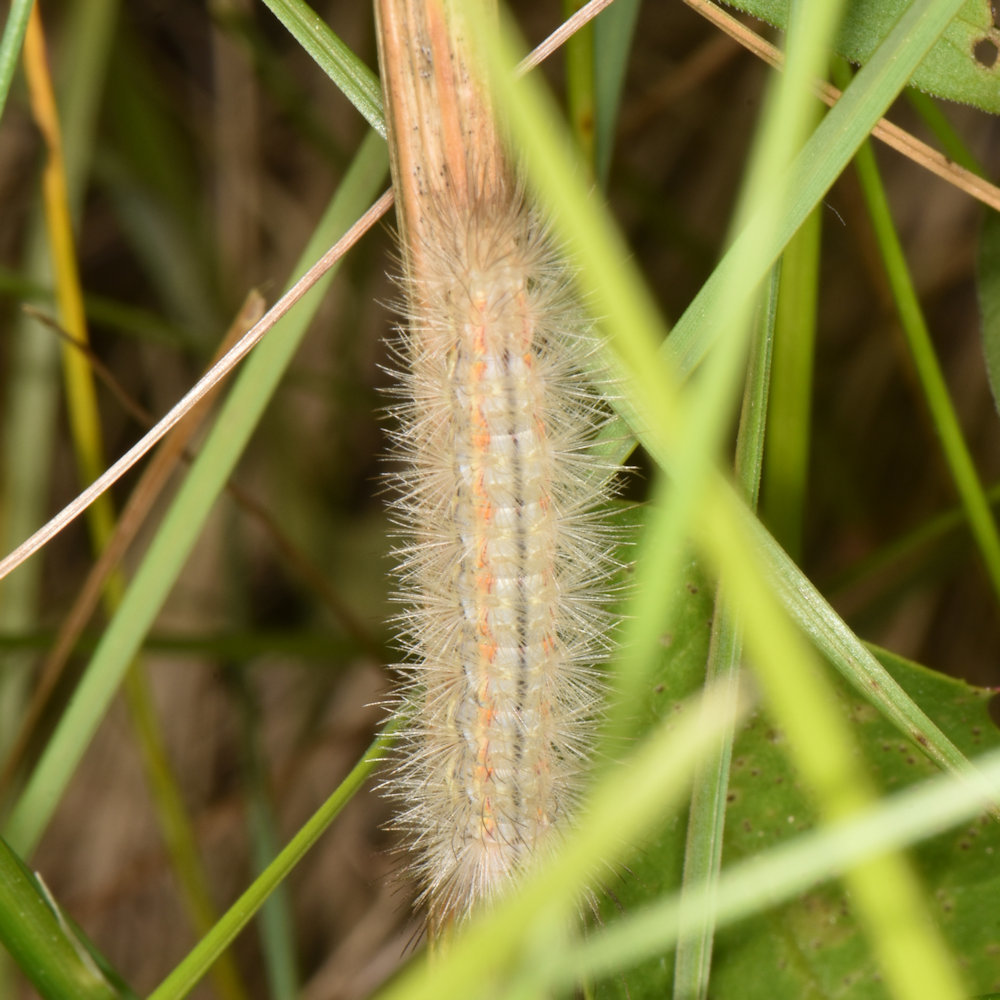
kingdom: Animalia
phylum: Arthropoda
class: Insecta
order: Lepidoptera
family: Erebidae
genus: Cisseps
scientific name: Cisseps fulvicollis
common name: Yellow-collared scape moth
